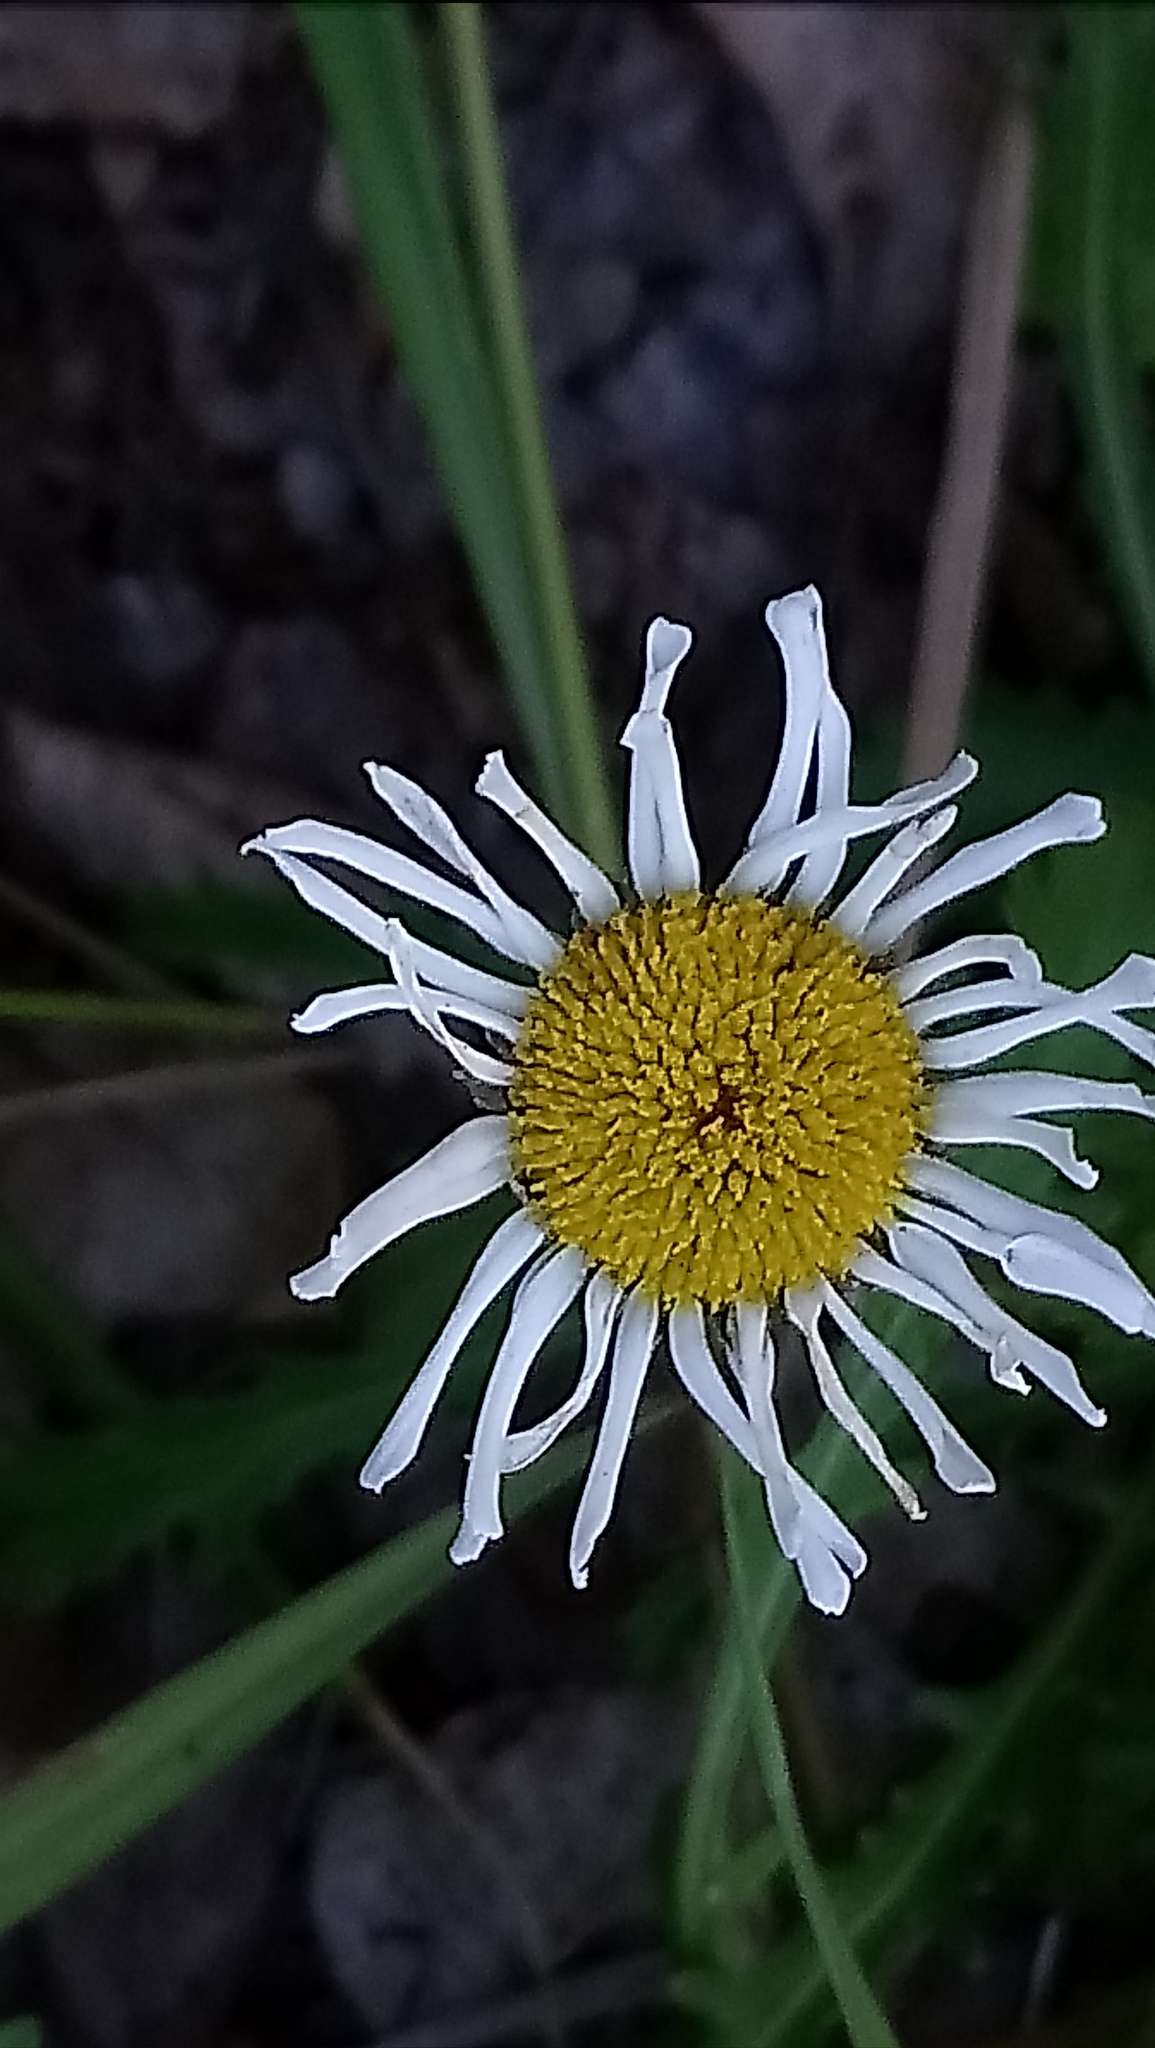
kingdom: Plantae
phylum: Tracheophyta
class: Magnoliopsida
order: Asterales
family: Asteraceae
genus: Leucanthemum
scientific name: Leucanthemum vulgare
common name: Oxeye daisy
